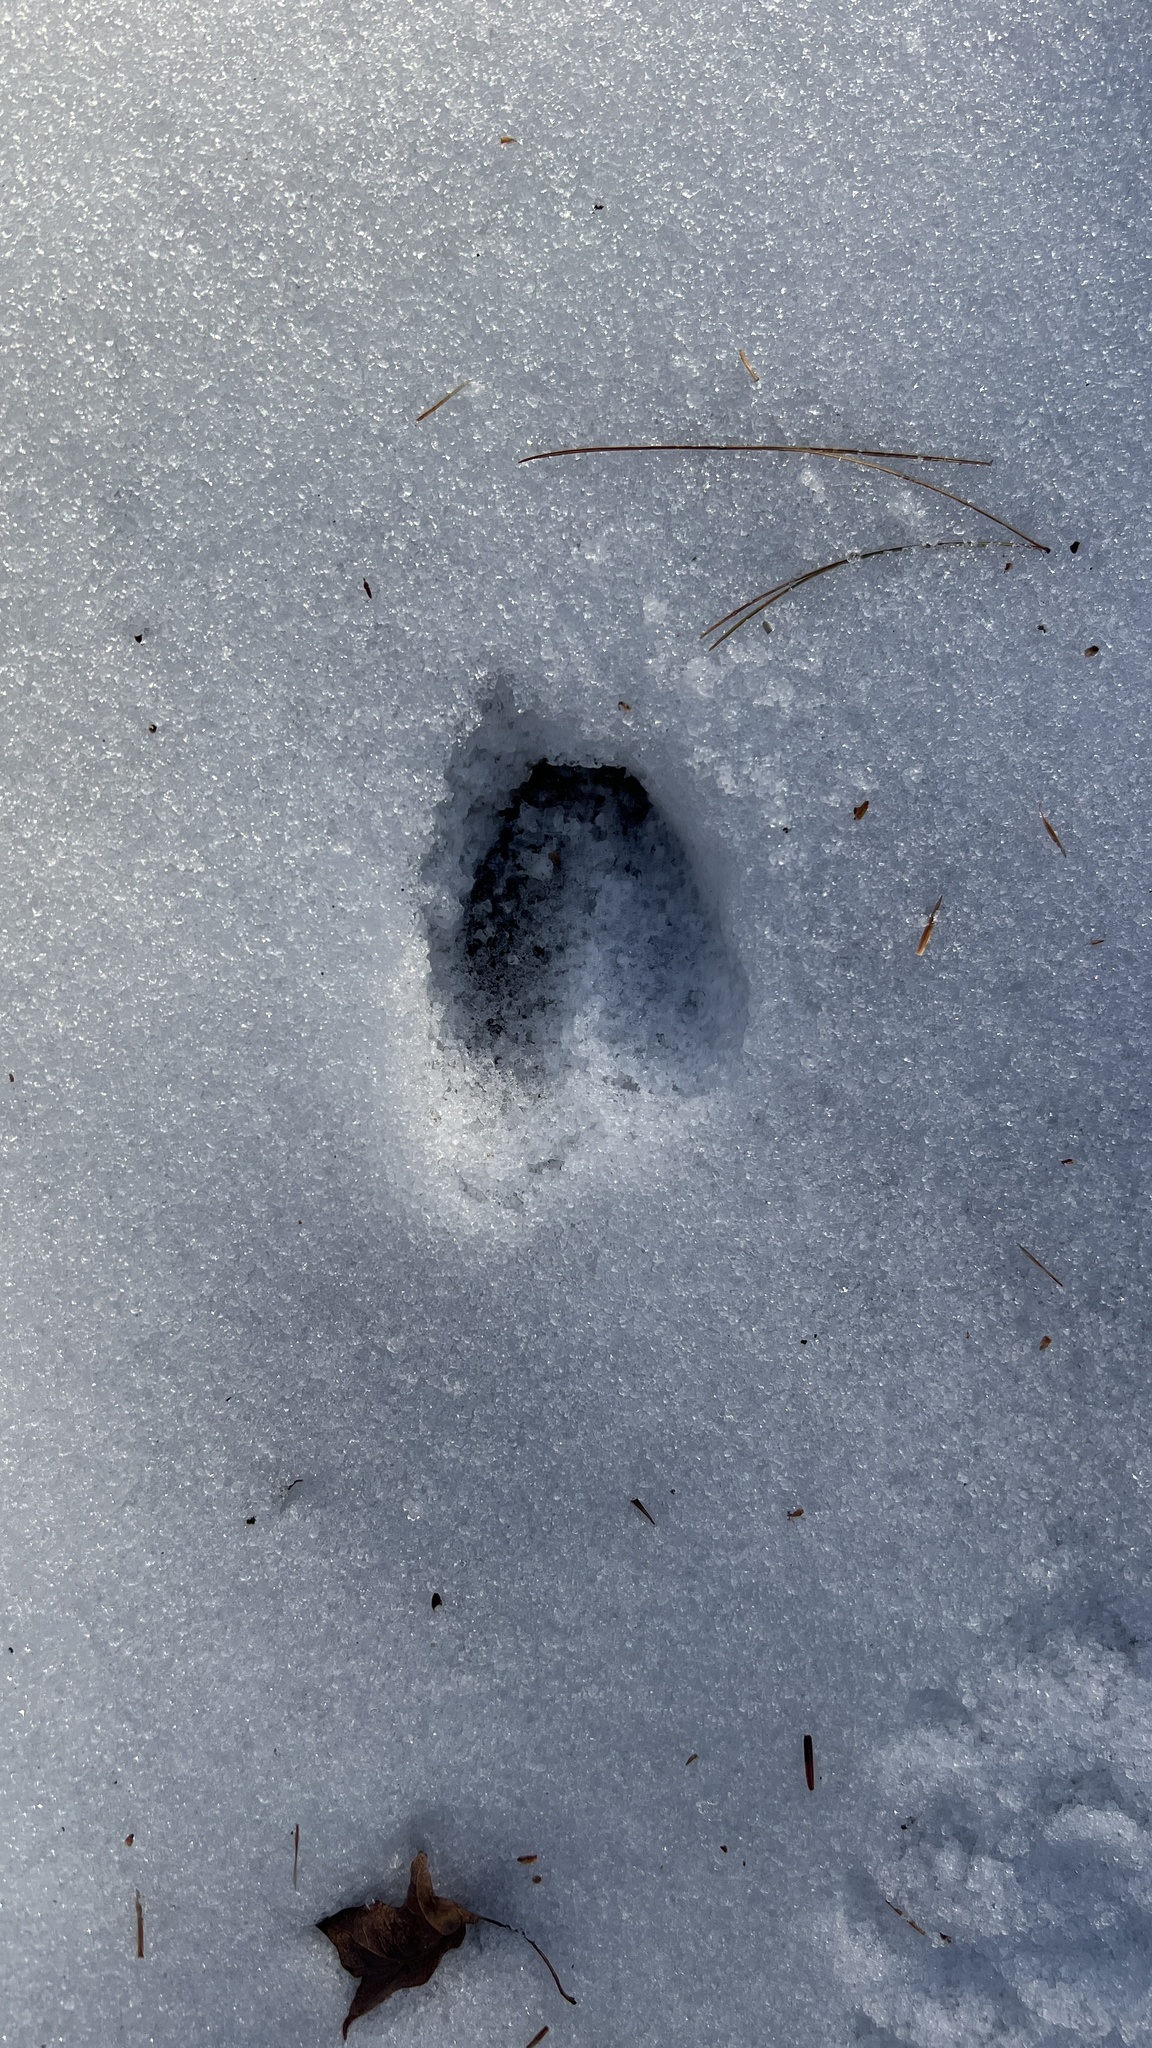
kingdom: Animalia
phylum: Chordata
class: Mammalia
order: Artiodactyla
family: Cervidae
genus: Odocoileus
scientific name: Odocoileus virginianus
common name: White-tailed deer
